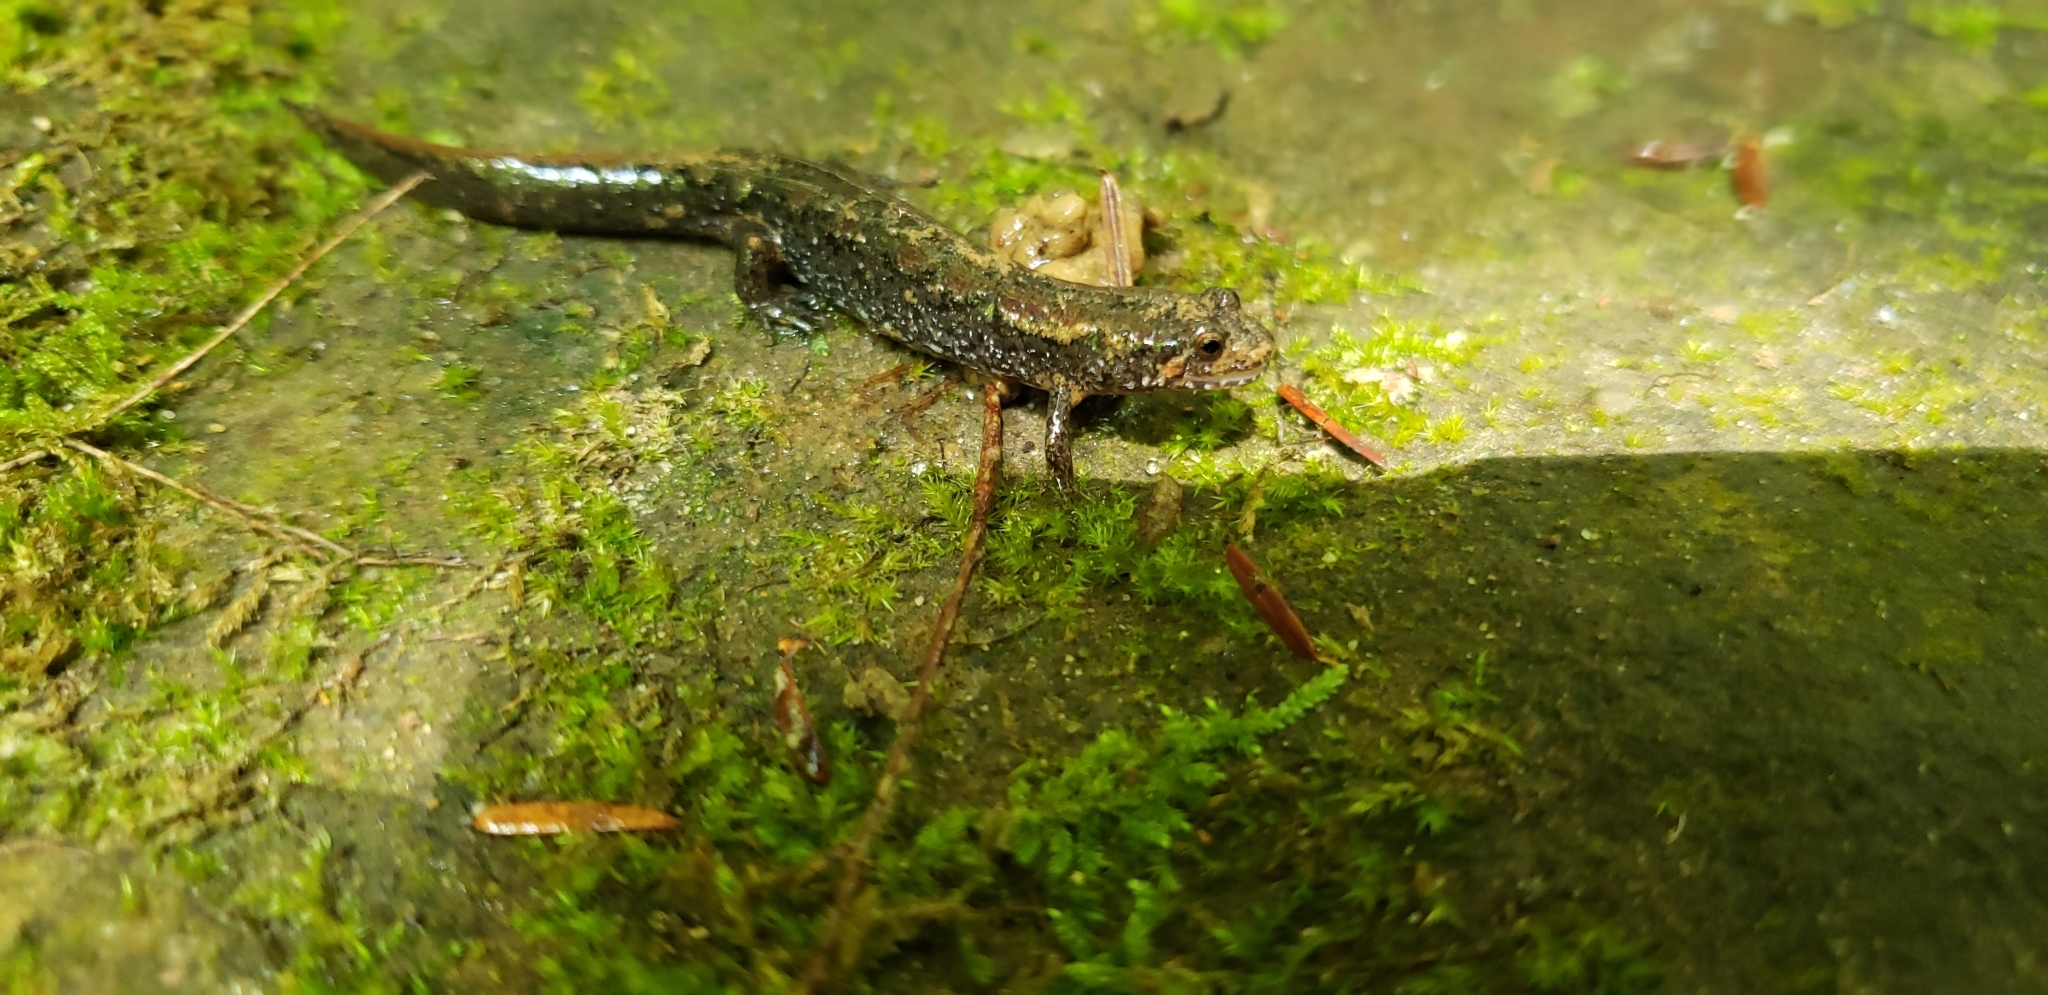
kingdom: Animalia
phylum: Chordata
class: Amphibia
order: Caudata
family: Plethodontidae
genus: Desmognathus
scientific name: Desmognathus conanti
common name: Spotted dusky salamander
